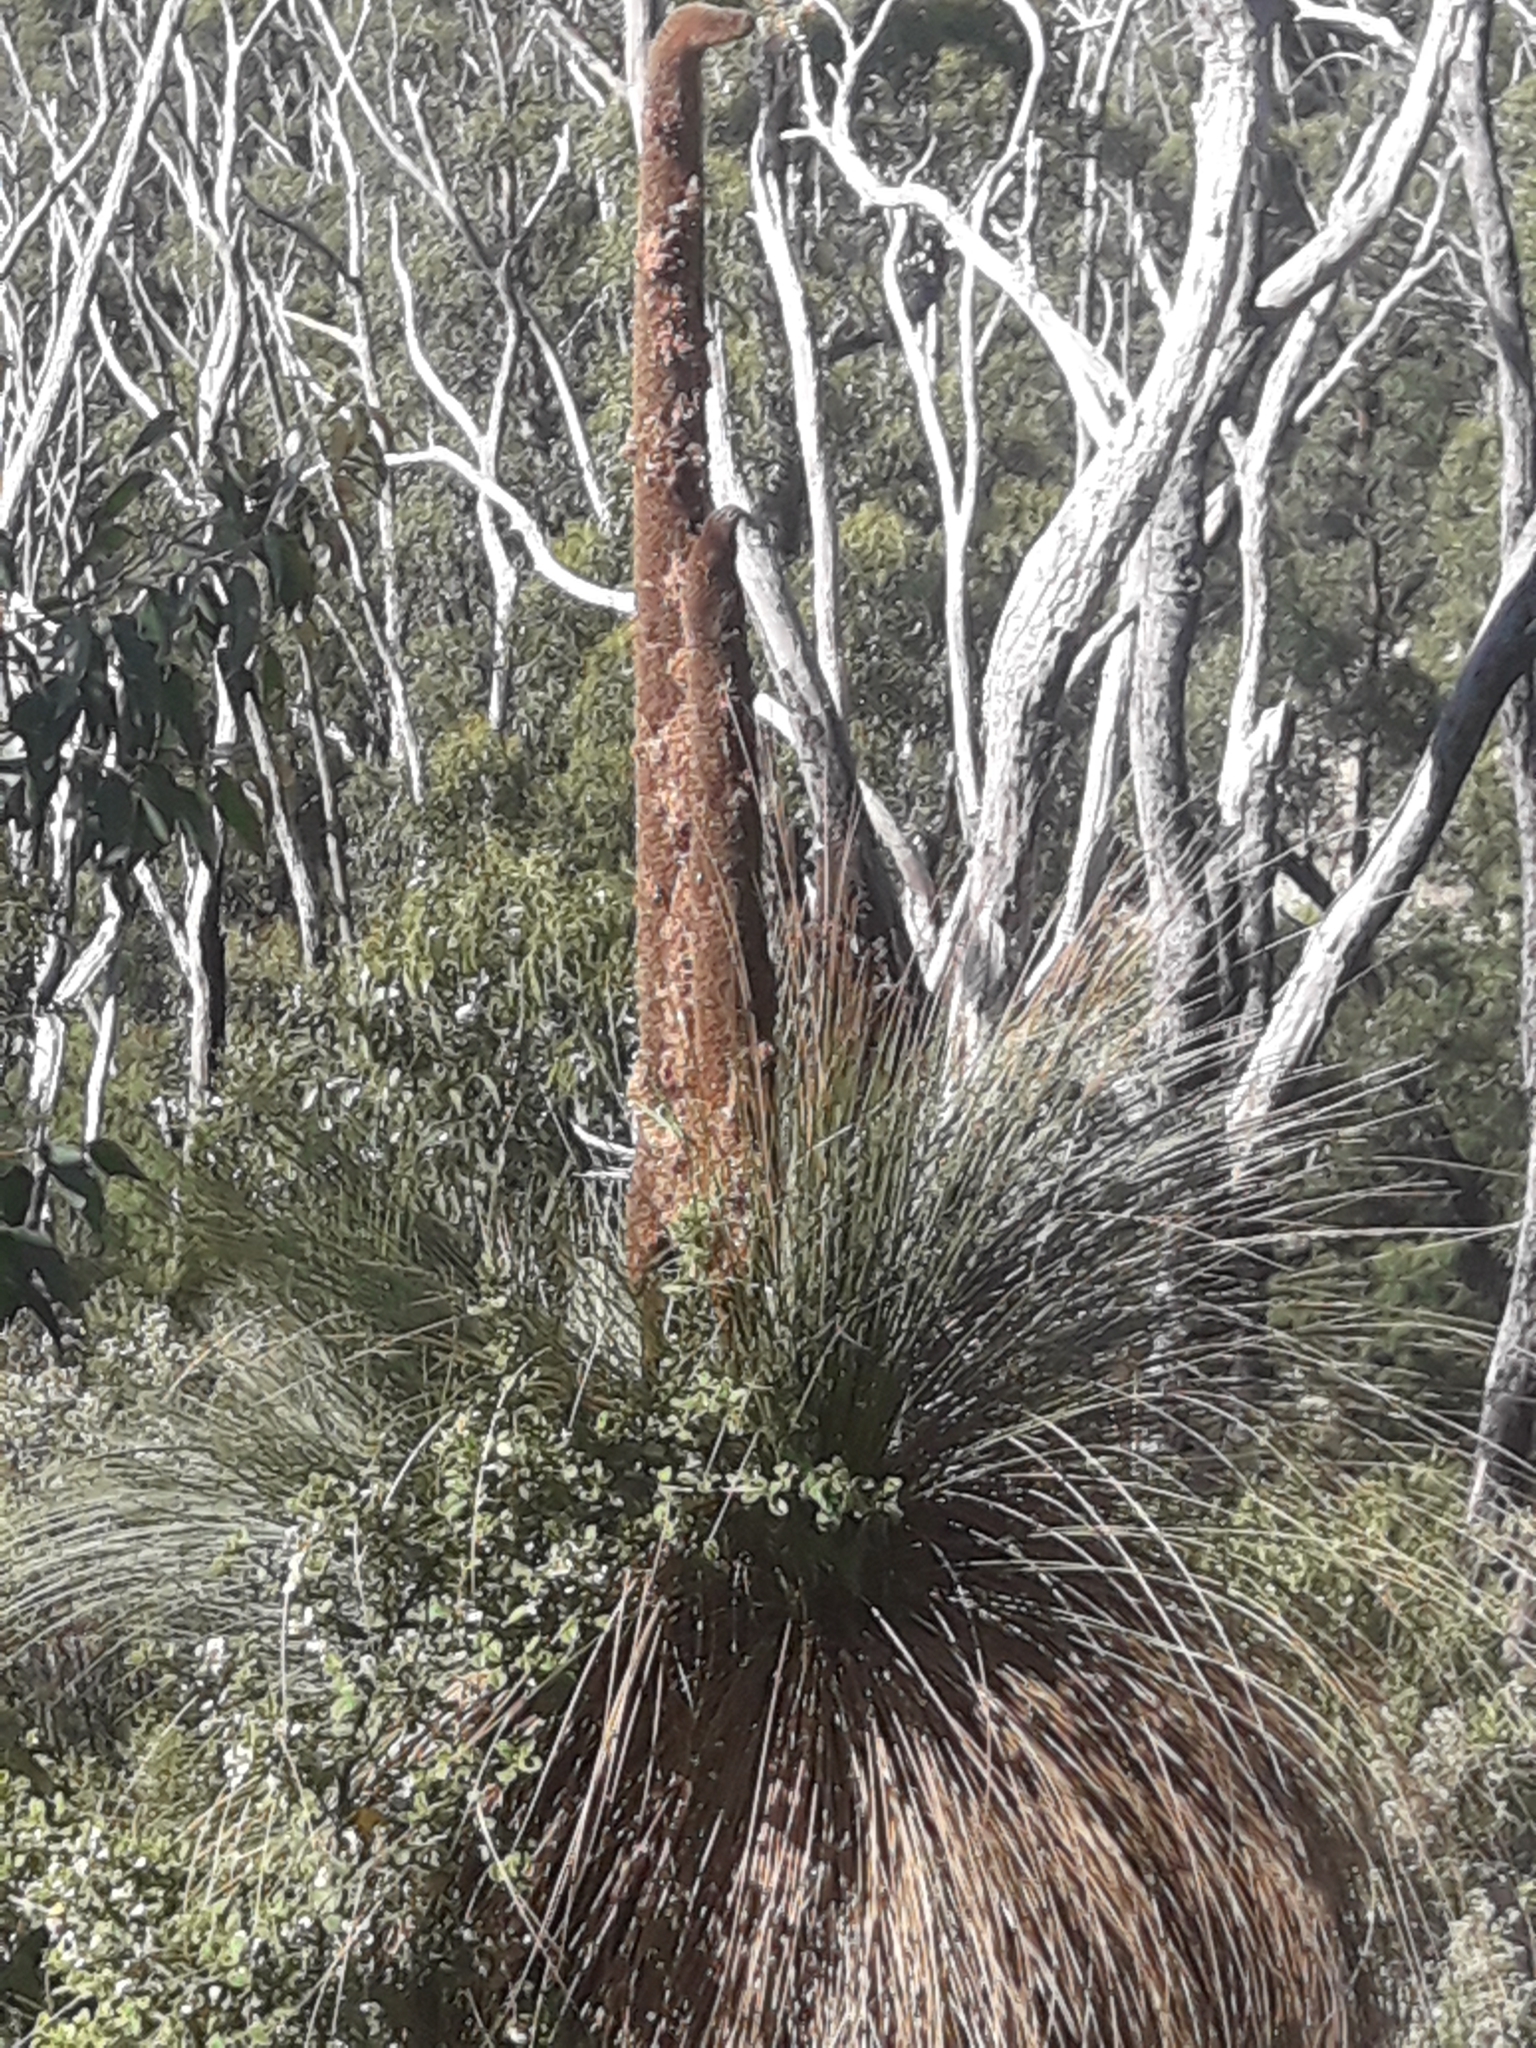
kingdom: Plantae
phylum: Tracheophyta
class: Liliopsida
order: Asparagales
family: Asphodelaceae
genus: Xanthorrhoea
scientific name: Xanthorrhoea australis
